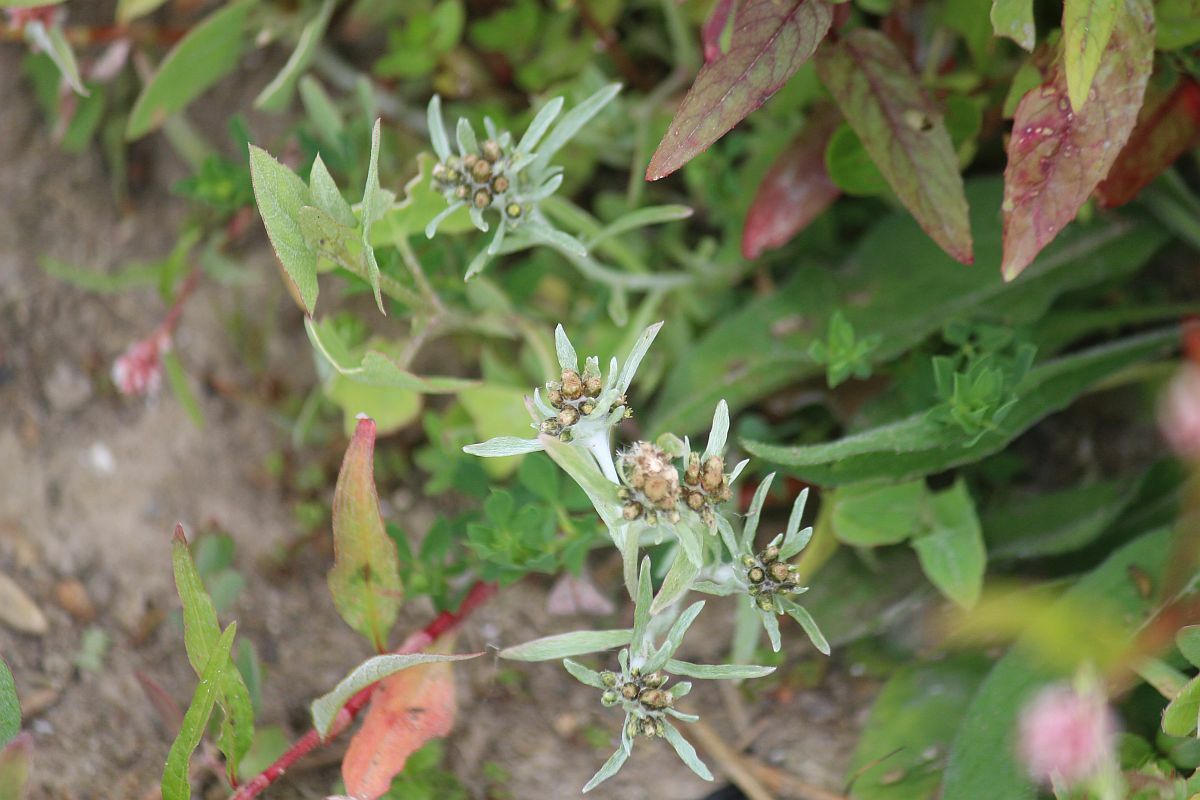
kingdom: Plantae
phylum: Tracheophyta
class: Magnoliopsida
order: Asterales
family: Asteraceae
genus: Gnaphalium
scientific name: Gnaphalium uliginosum
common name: Marsh cudweed
